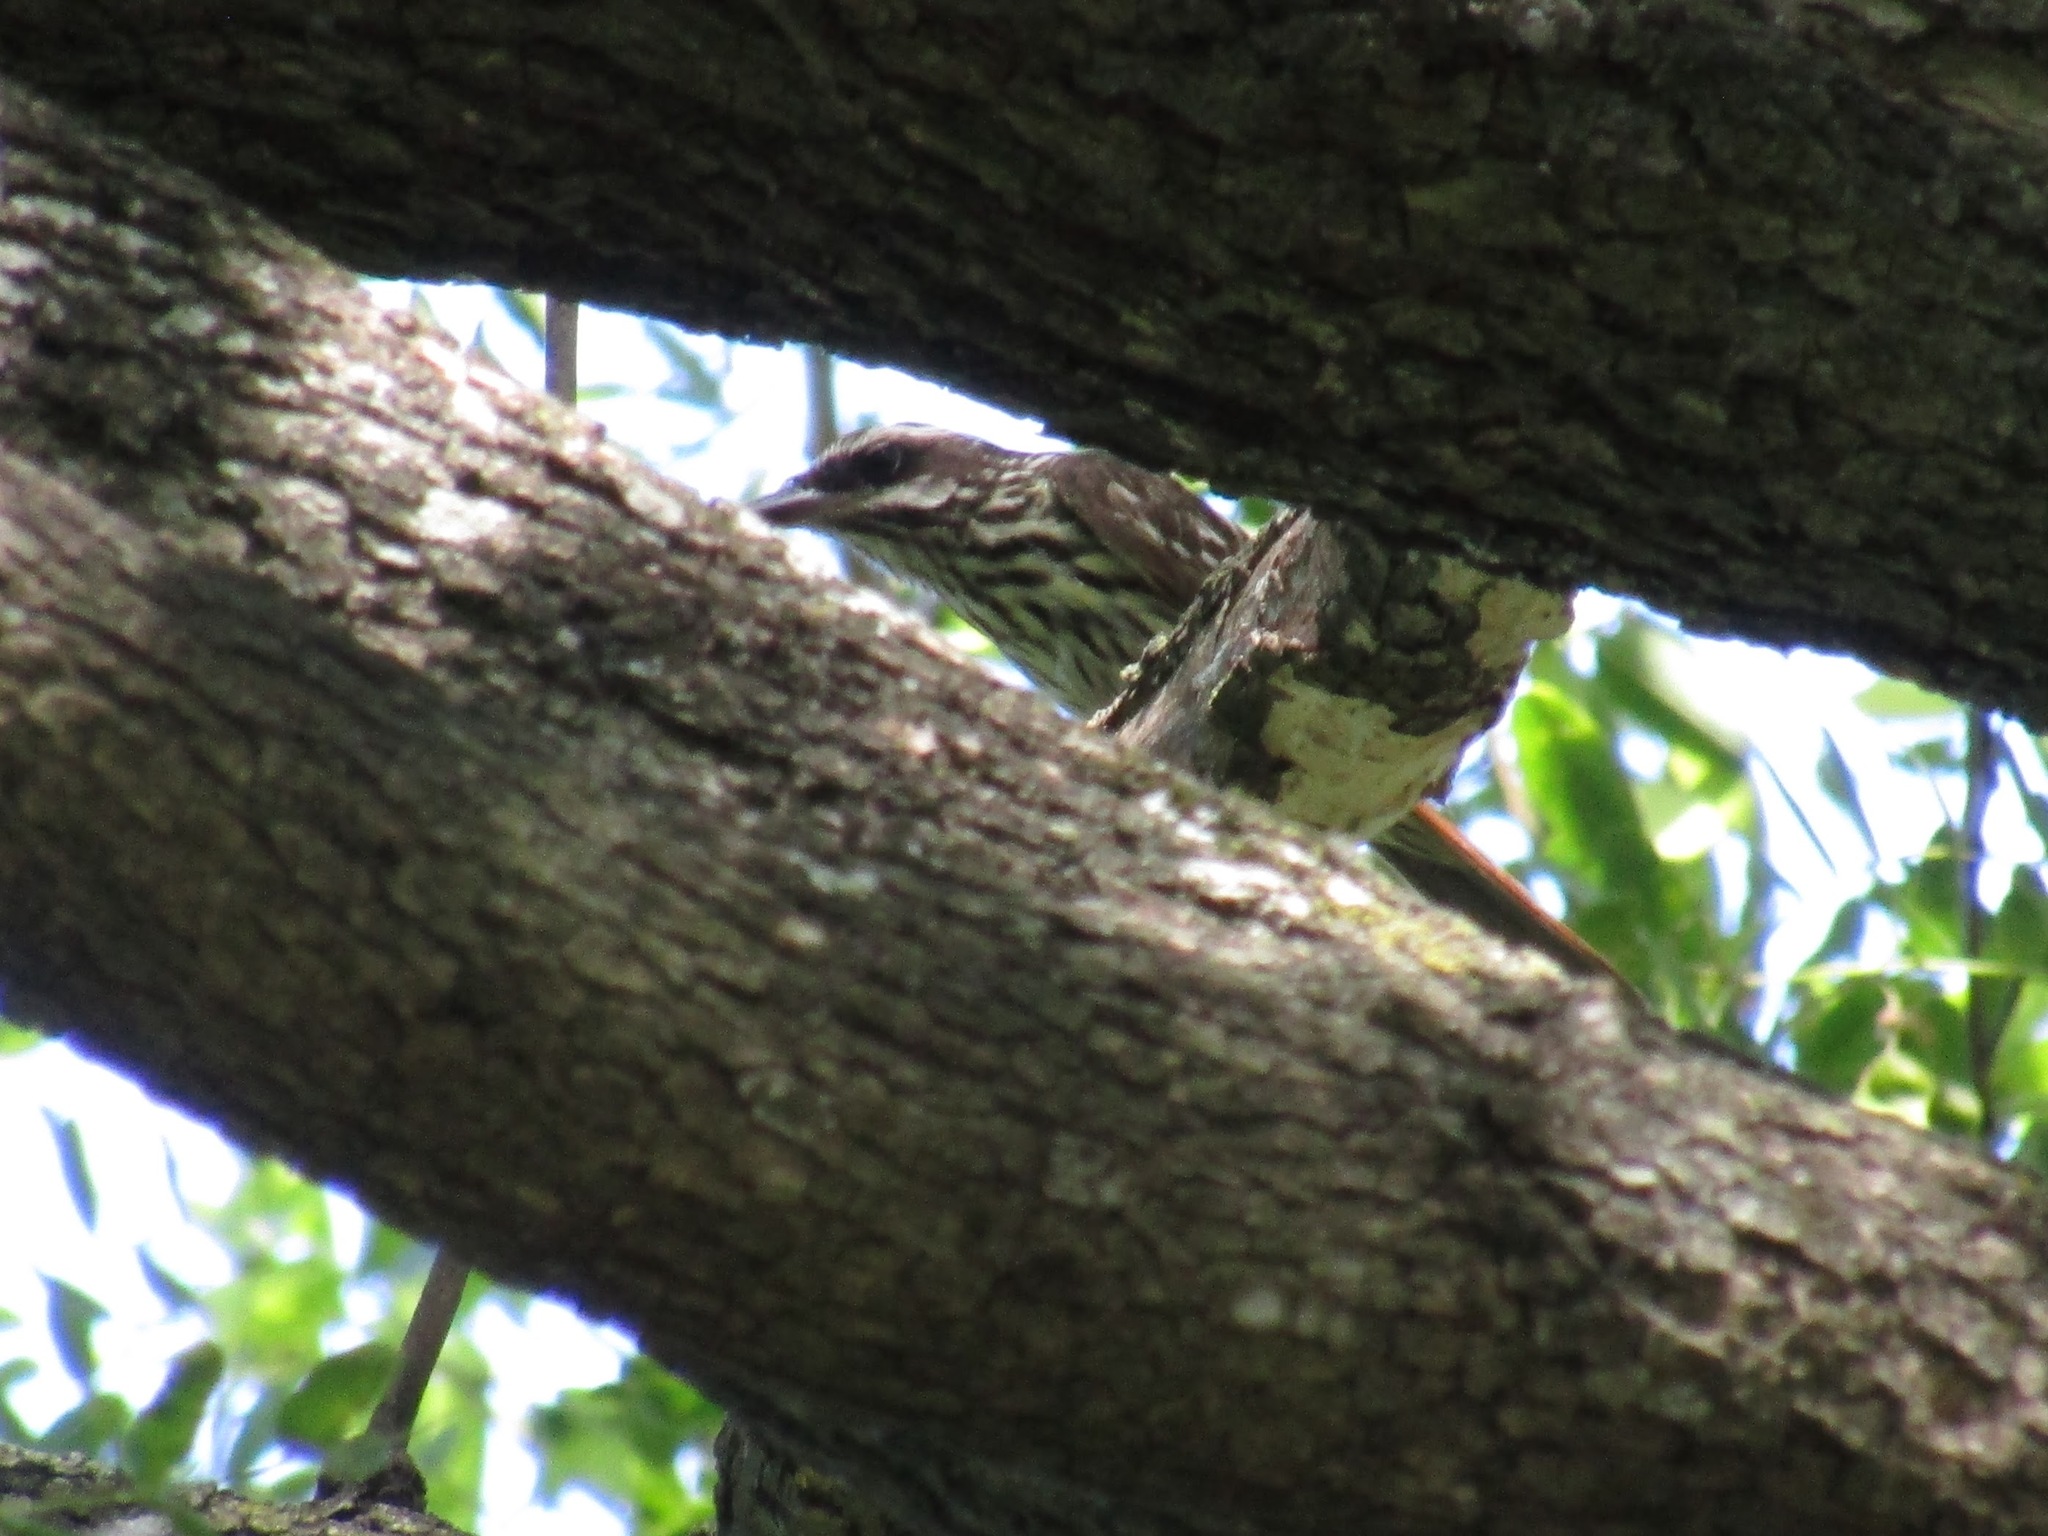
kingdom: Animalia
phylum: Chordata
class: Aves
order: Passeriformes
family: Tyrannidae
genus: Myiodynastes
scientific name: Myiodynastes maculatus
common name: Streaked flycatcher
